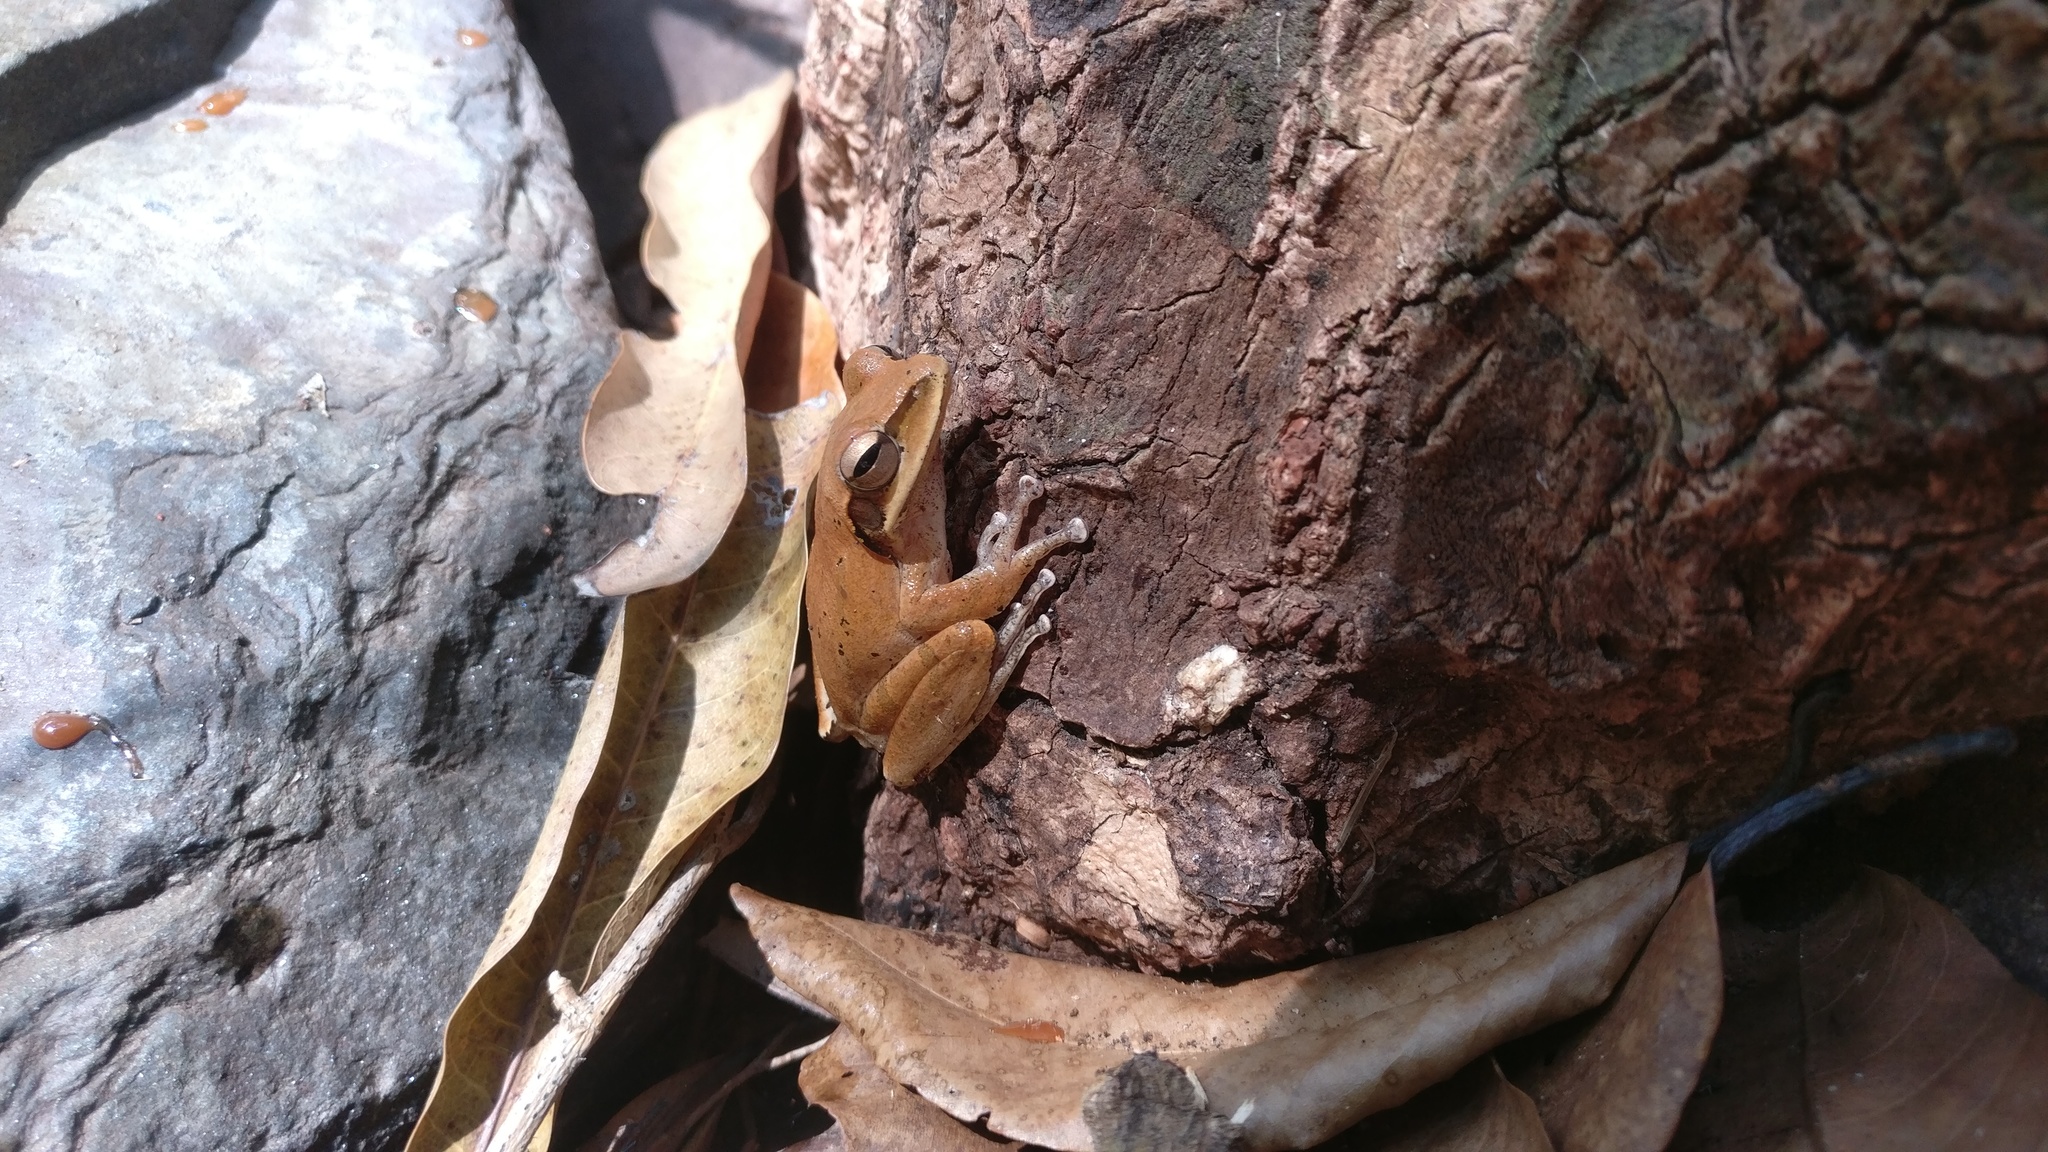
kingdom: Animalia
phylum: Chordata
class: Amphibia
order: Anura
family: Rhacophoridae
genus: Polypedates
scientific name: Polypedates maculatus
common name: Himalayan tree frog
